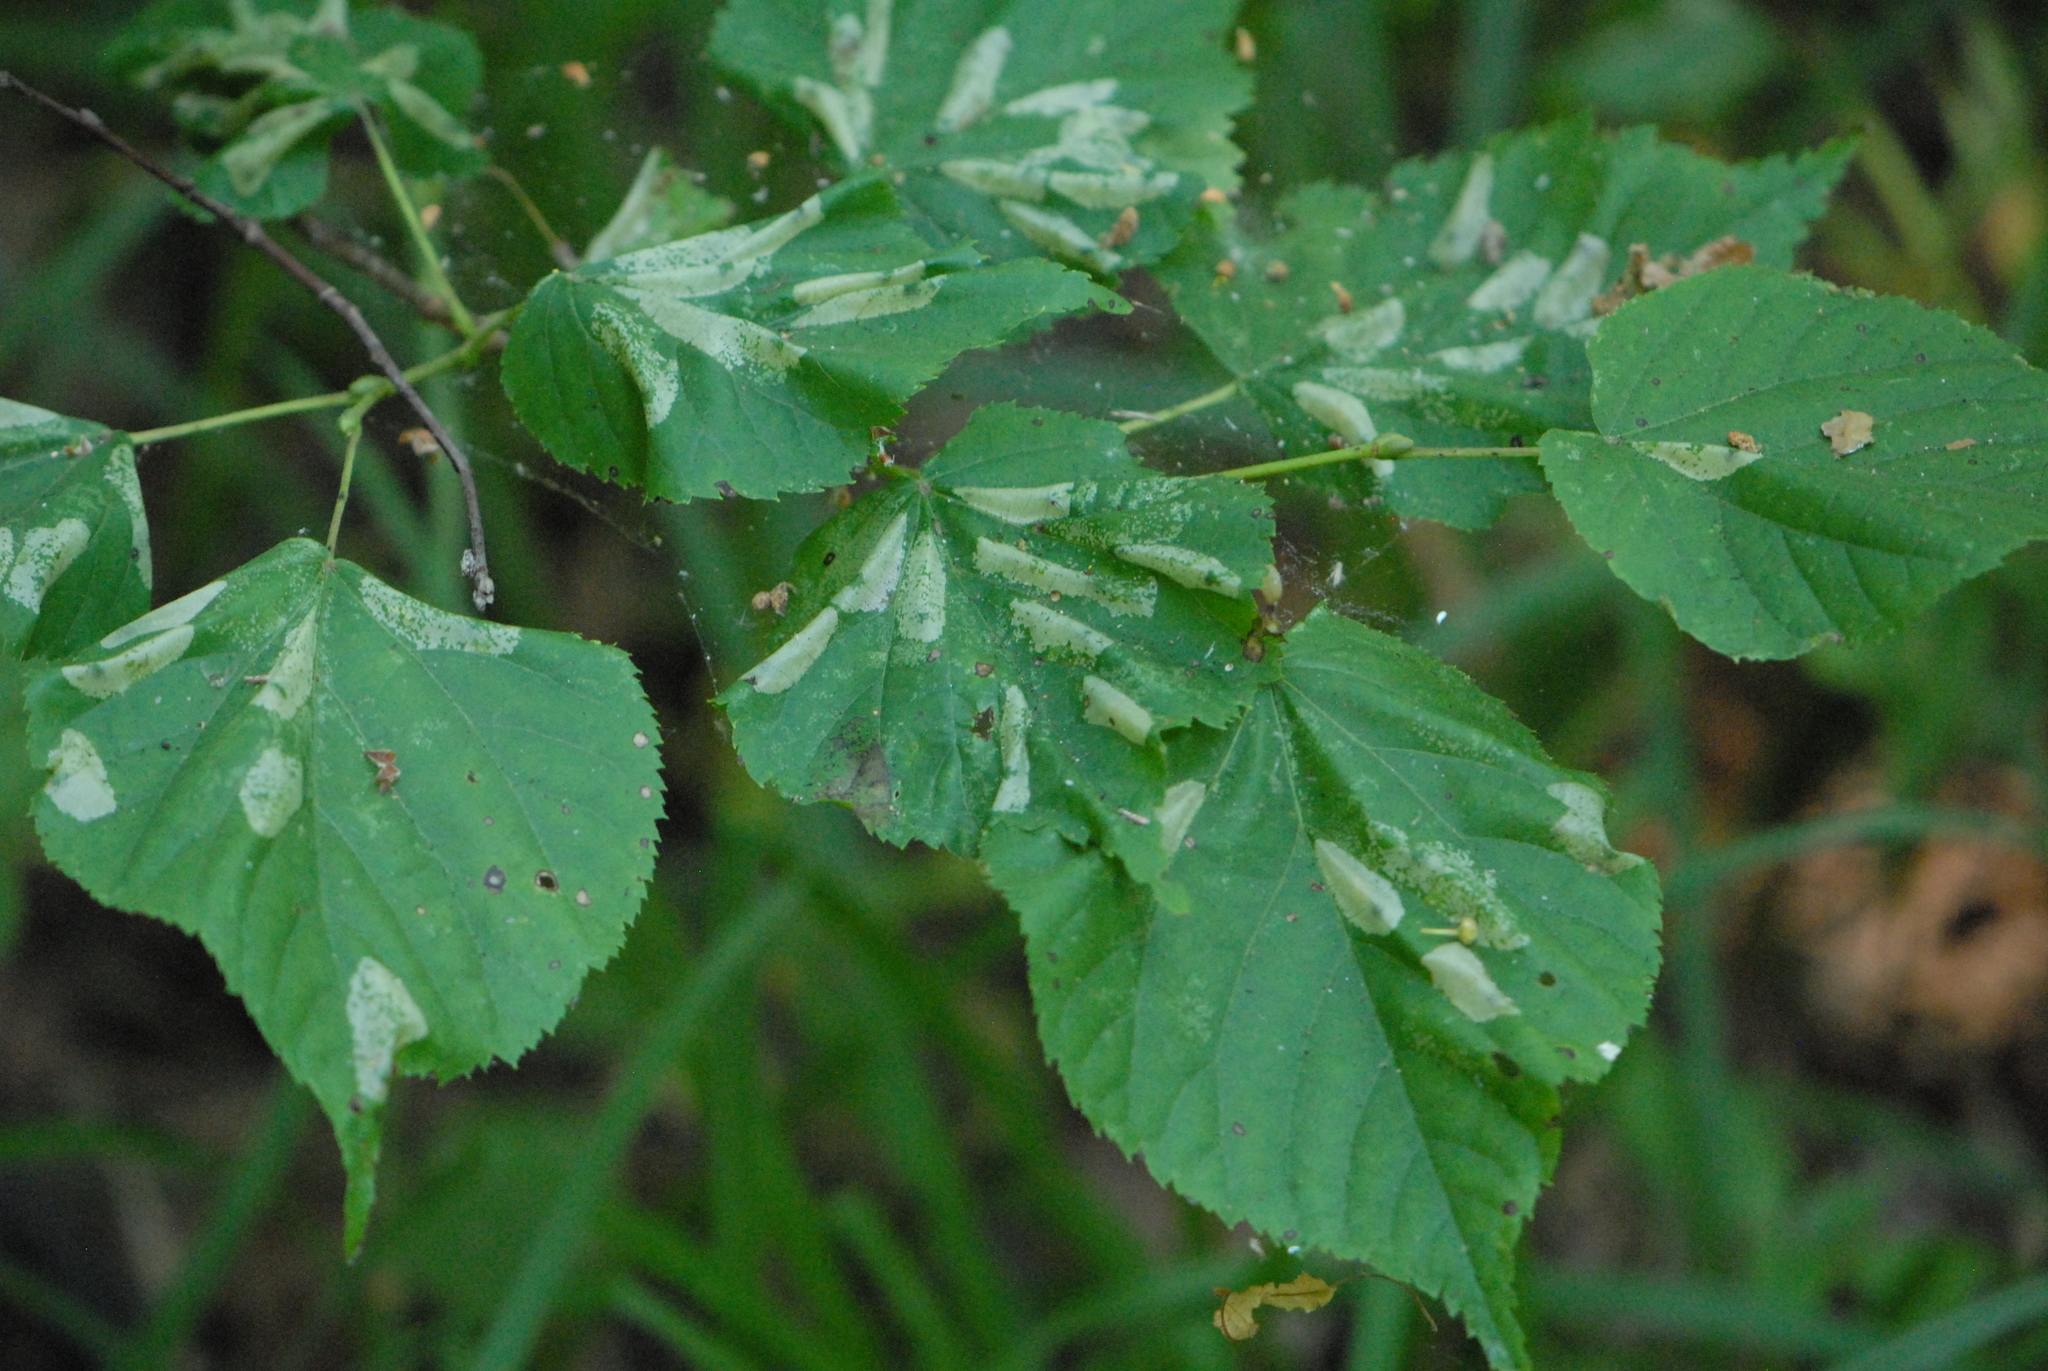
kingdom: Plantae
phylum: Tracheophyta
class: Magnoliopsida
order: Malvales
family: Malvaceae
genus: Tilia
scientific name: Tilia cordata
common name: Small-leaved lime
